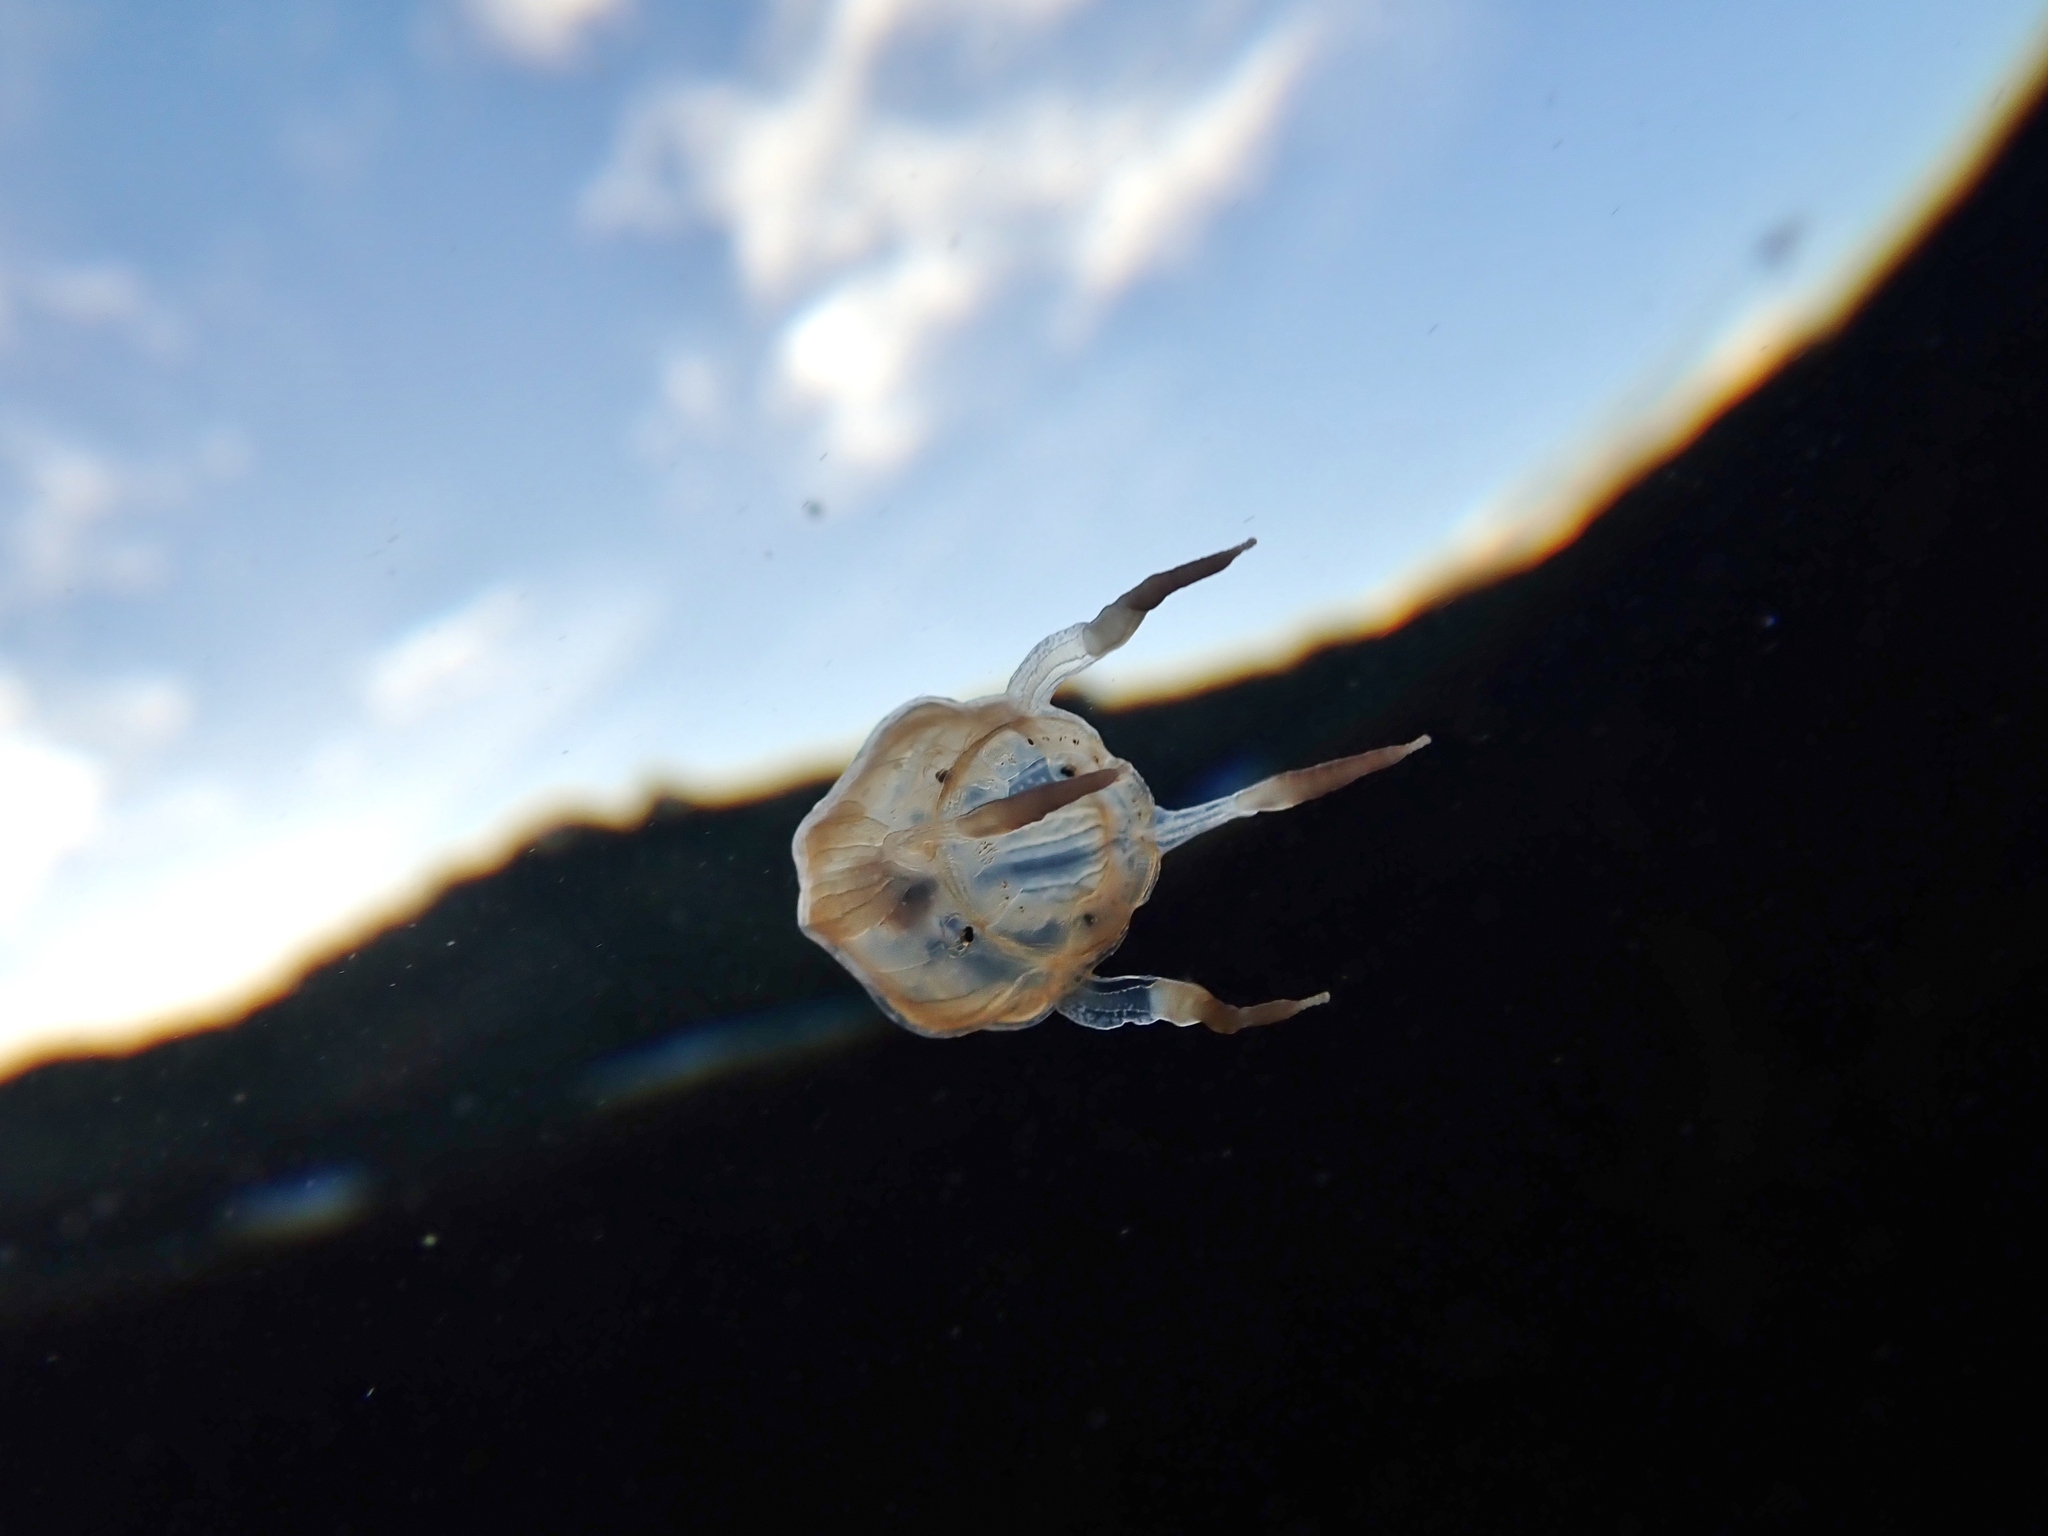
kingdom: Animalia
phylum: Cnidaria
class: Cubozoa
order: Carybdeida
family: Tripedaliidae
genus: Copula
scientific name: Copula sivickisi
